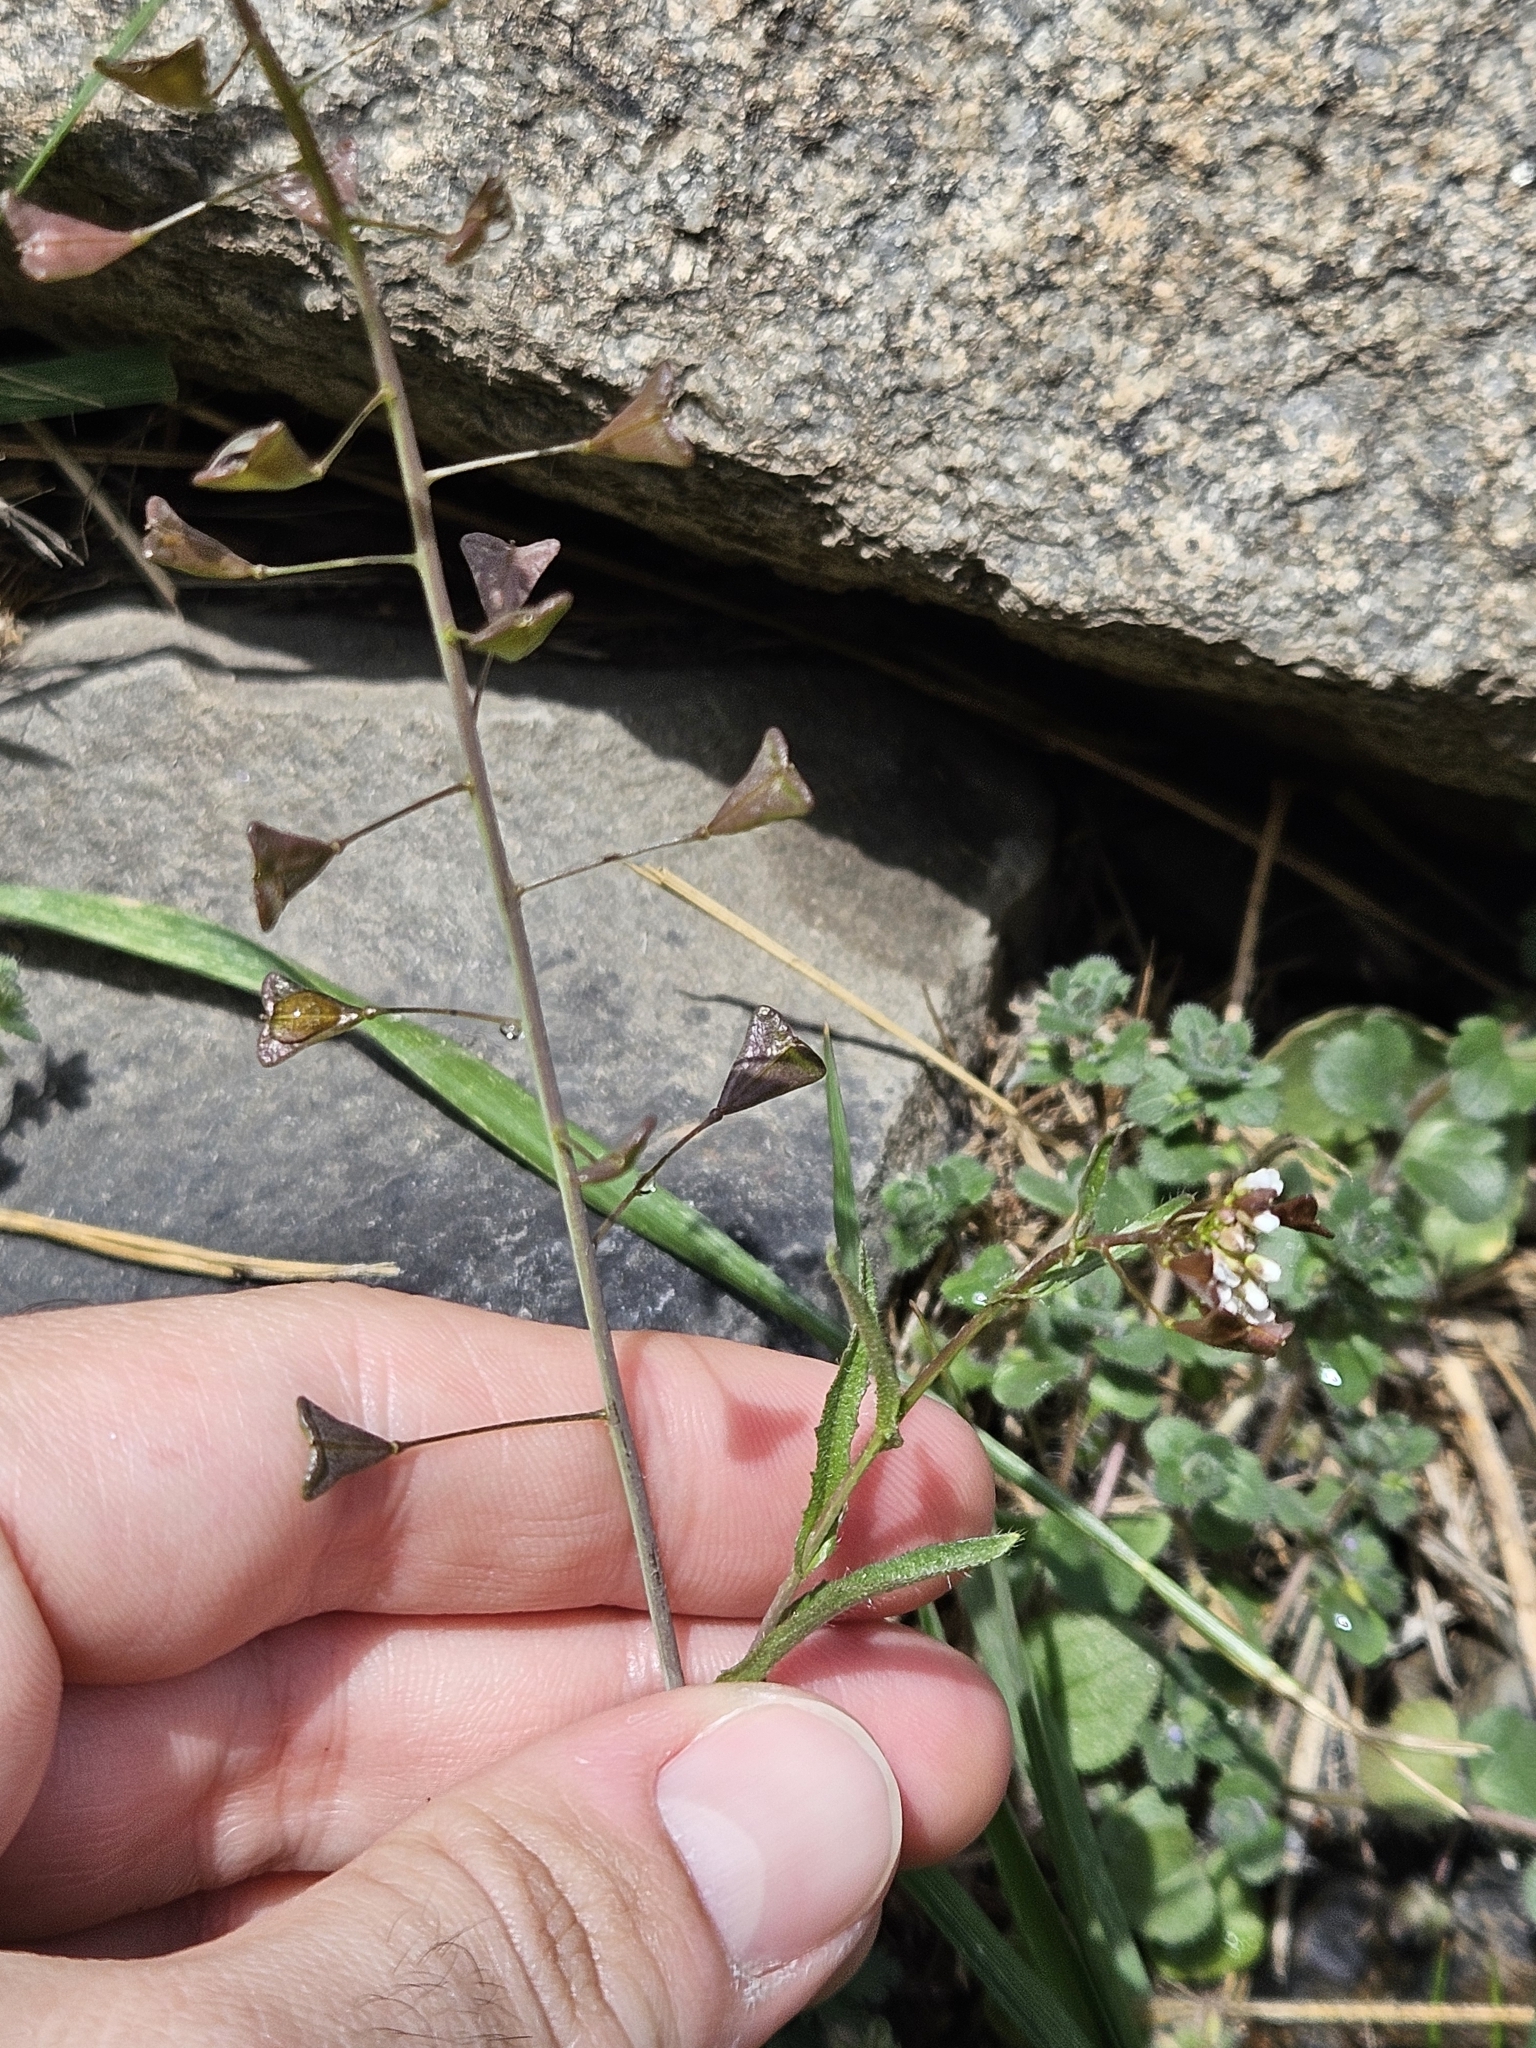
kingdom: Plantae
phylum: Tracheophyta
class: Magnoliopsida
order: Brassicales
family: Brassicaceae
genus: Capsella
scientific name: Capsella bursa-pastoris
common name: Shepherd's purse
